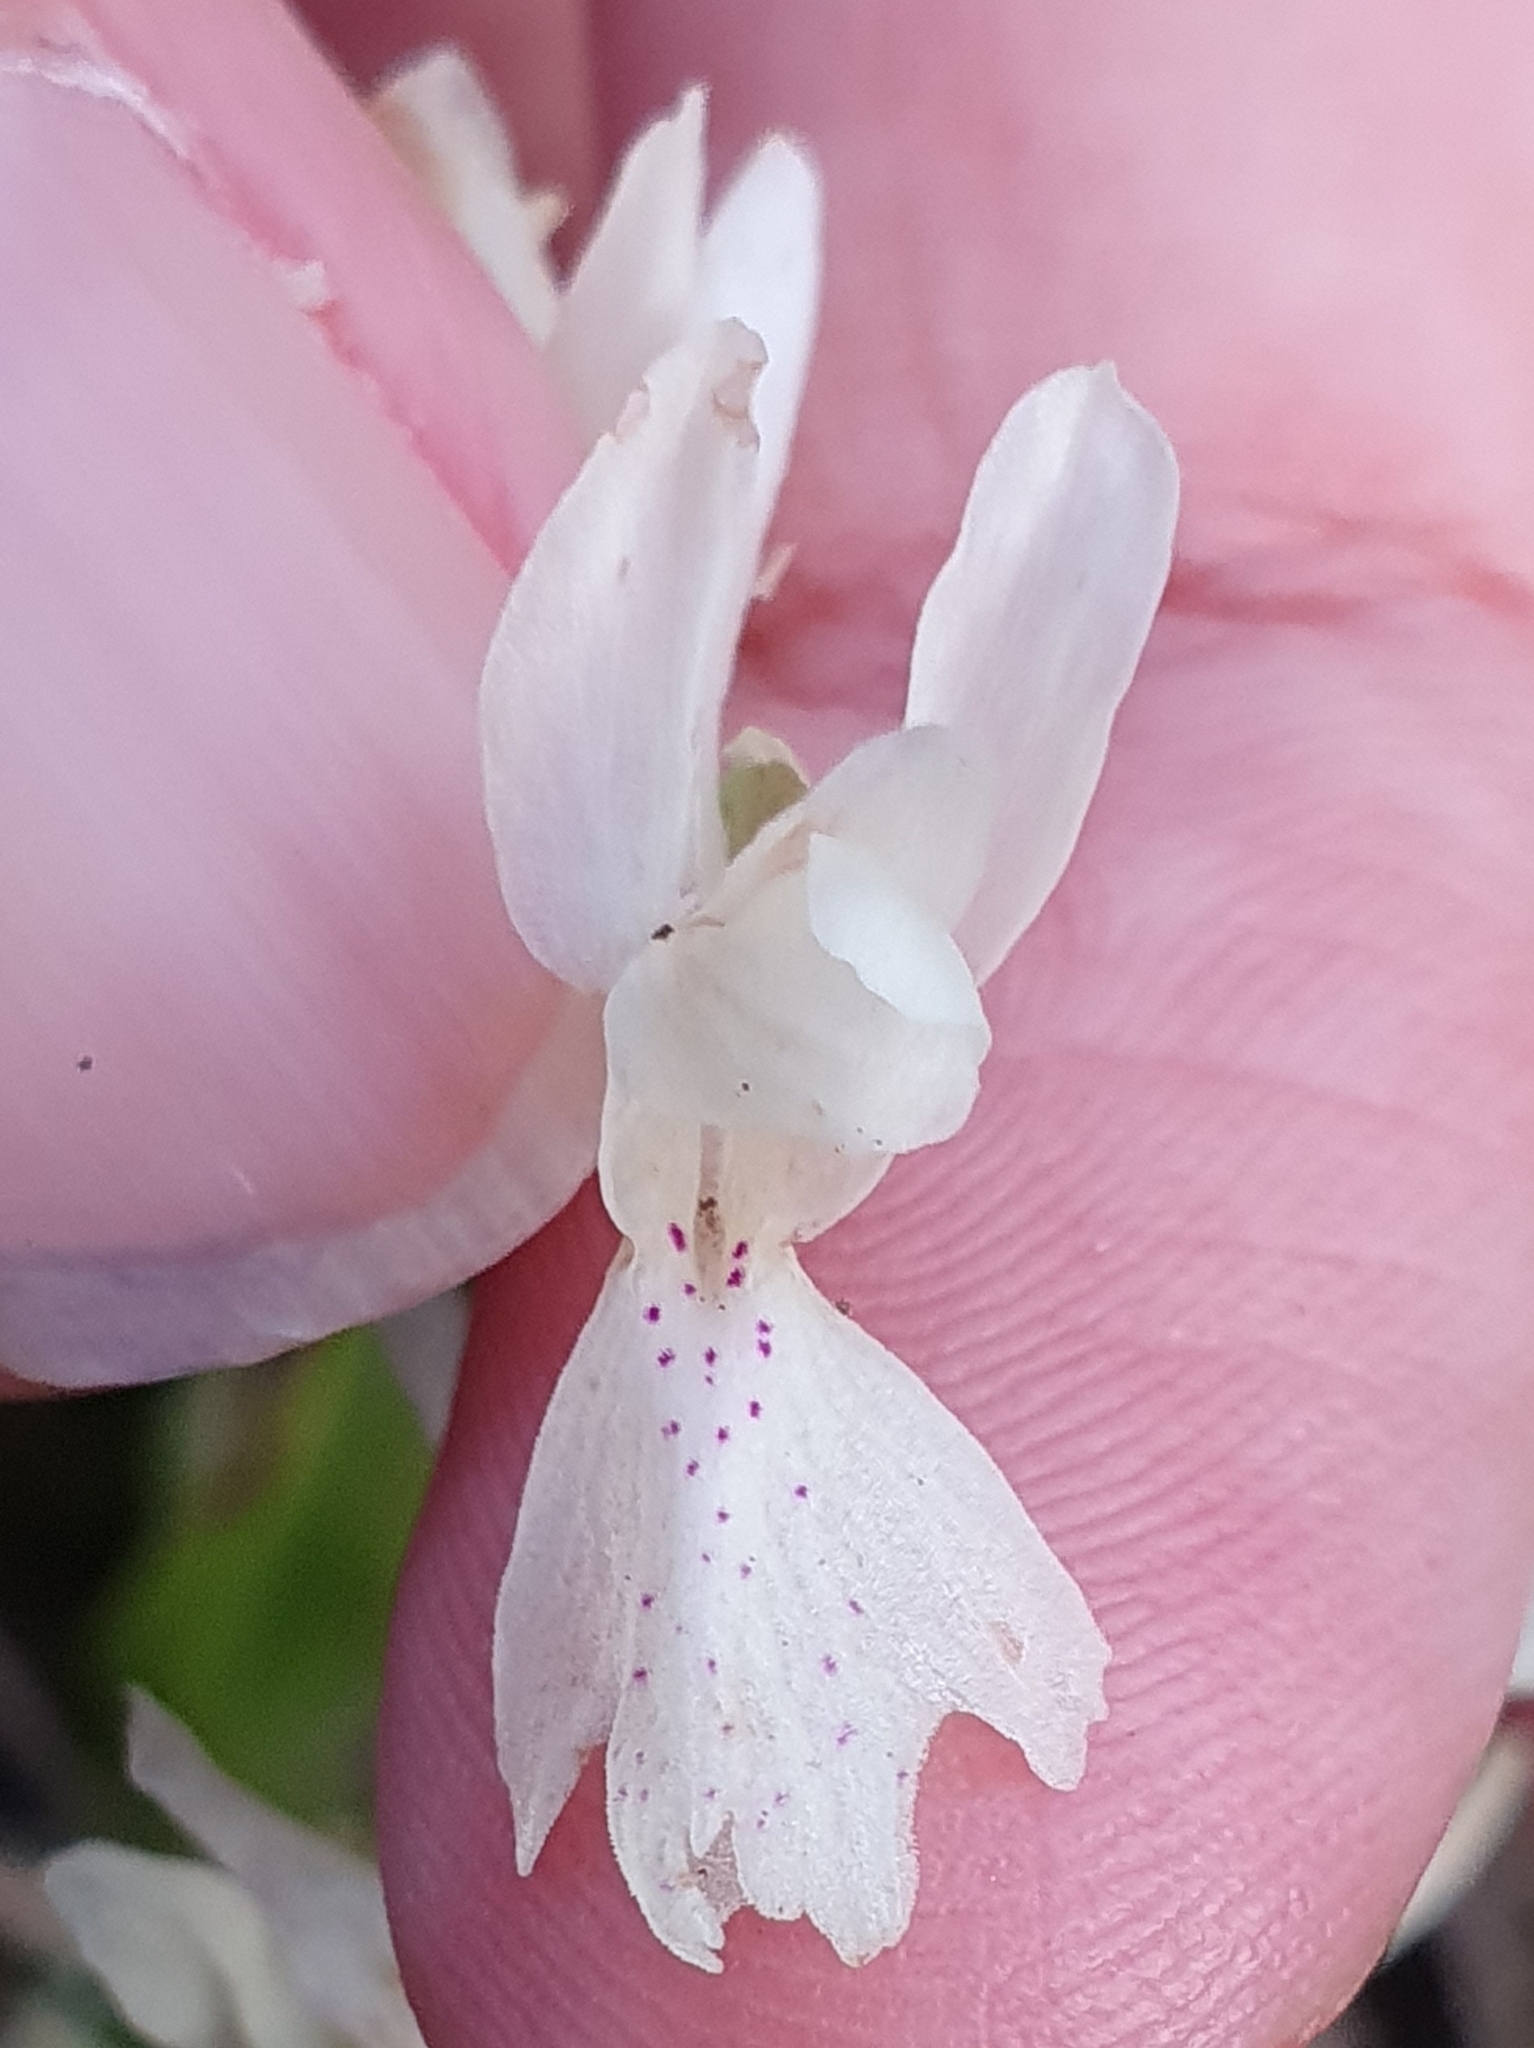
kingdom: Plantae
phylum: Tracheophyta
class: Liliopsida
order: Asparagales
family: Orchidaceae
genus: Orchis
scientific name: Orchis laeta
